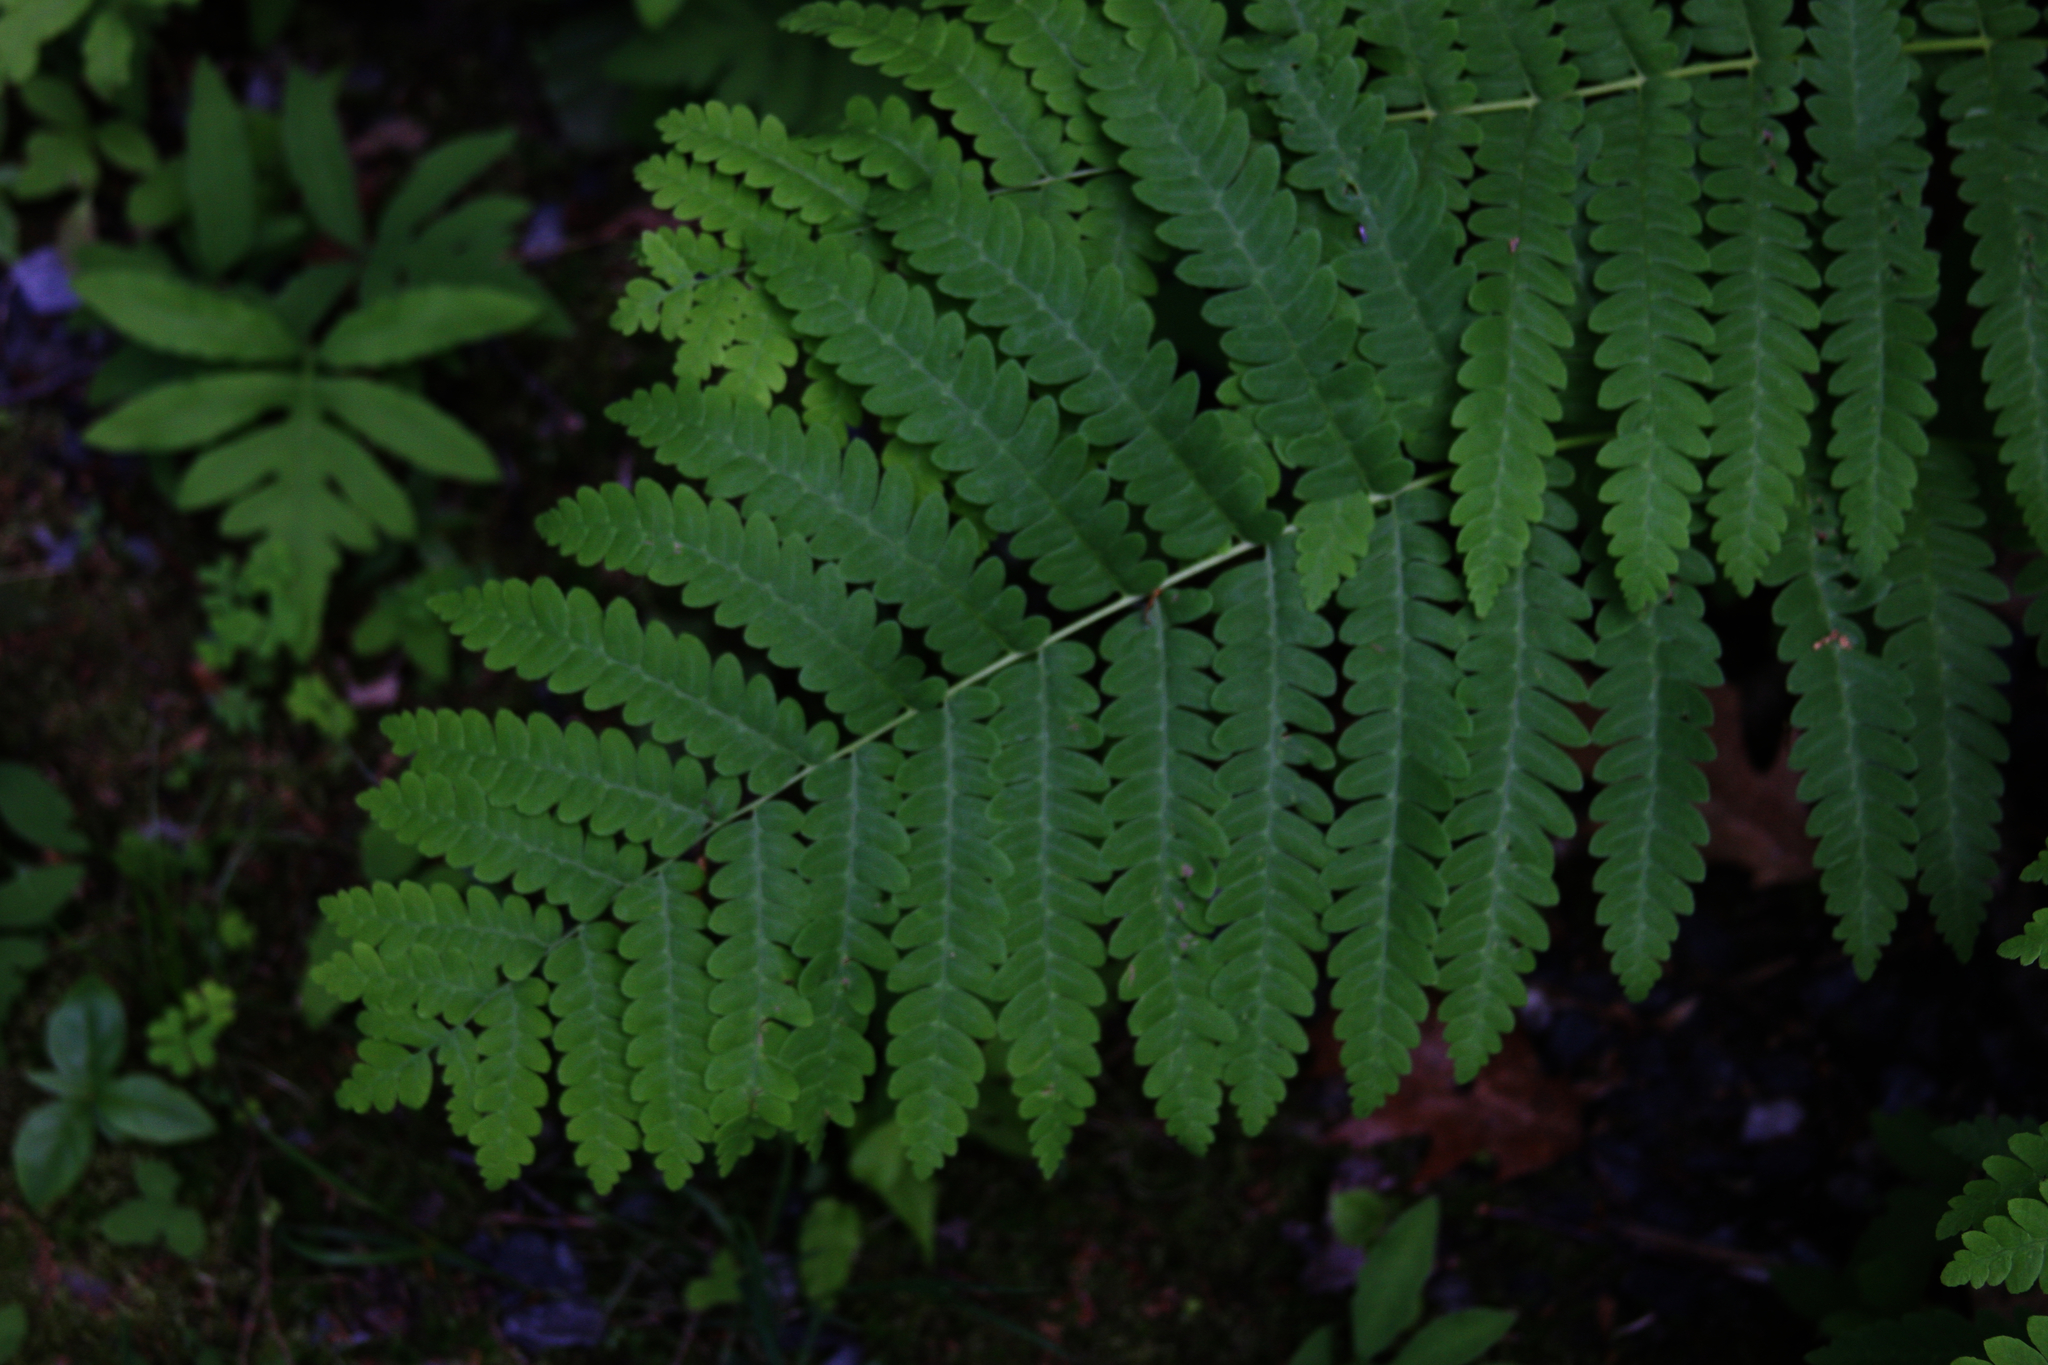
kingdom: Plantae
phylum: Tracheophyta
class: Polypodiopsida
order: Osmundales
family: Osmundaceae
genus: Claytosmunda
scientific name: Claytosmunda claytoniana
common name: Clayton's fern
